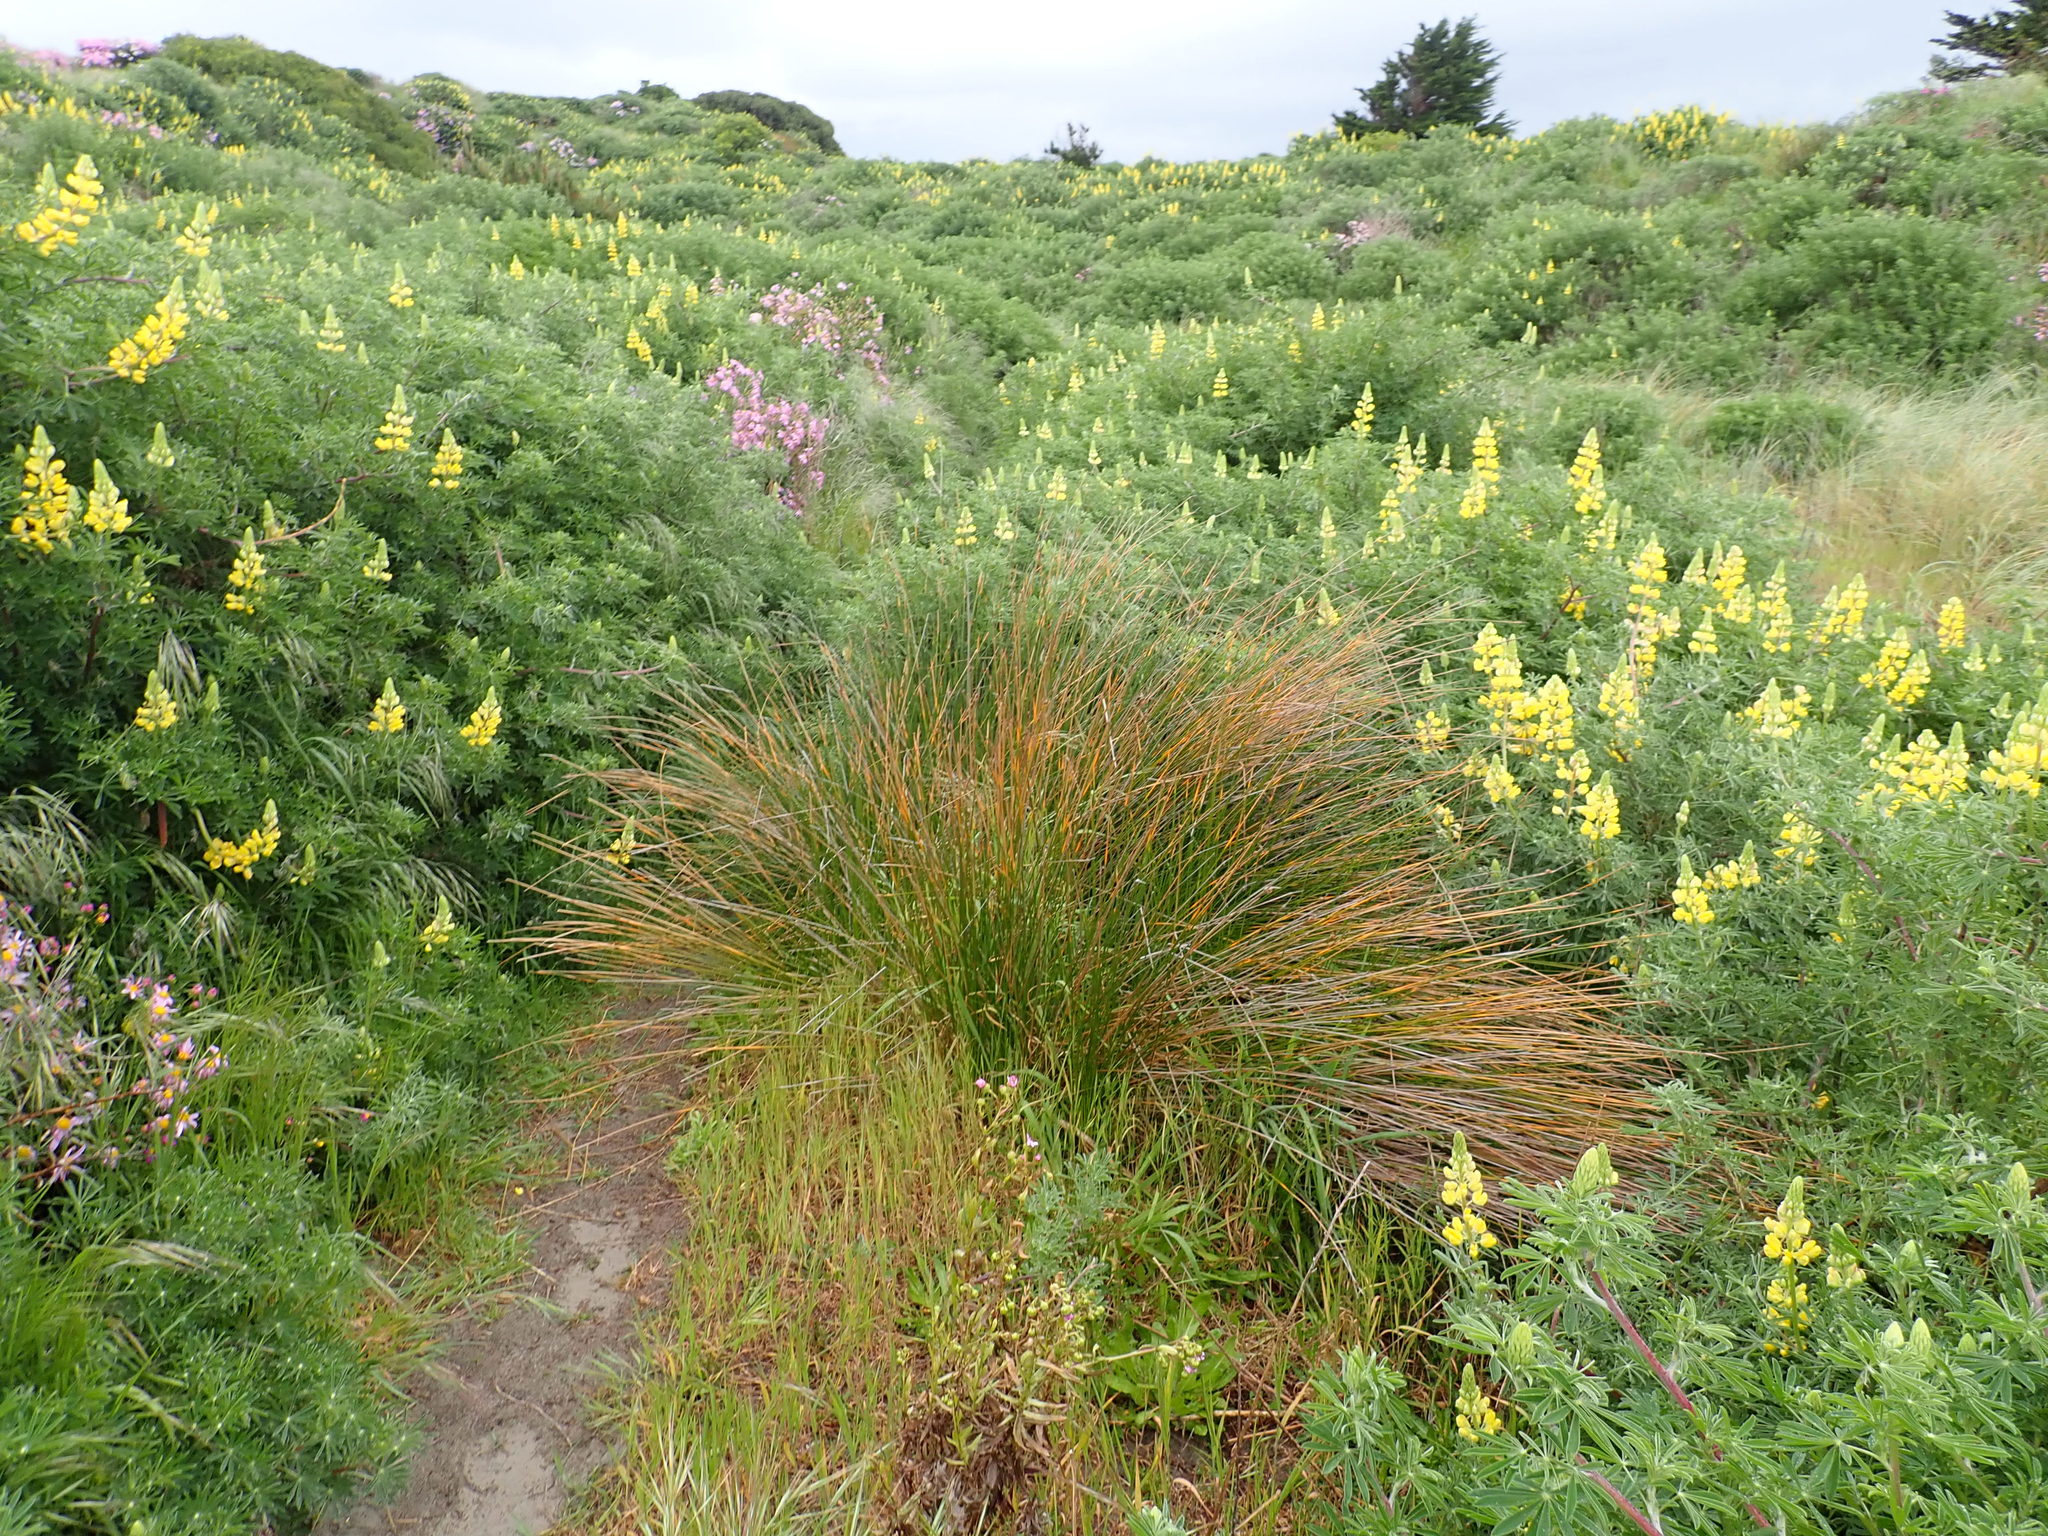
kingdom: Plantae
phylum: Tracheophyta
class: Liliopsida
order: Poales
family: Cyperaceae
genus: Ficinia
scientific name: Ficinia nodosa
